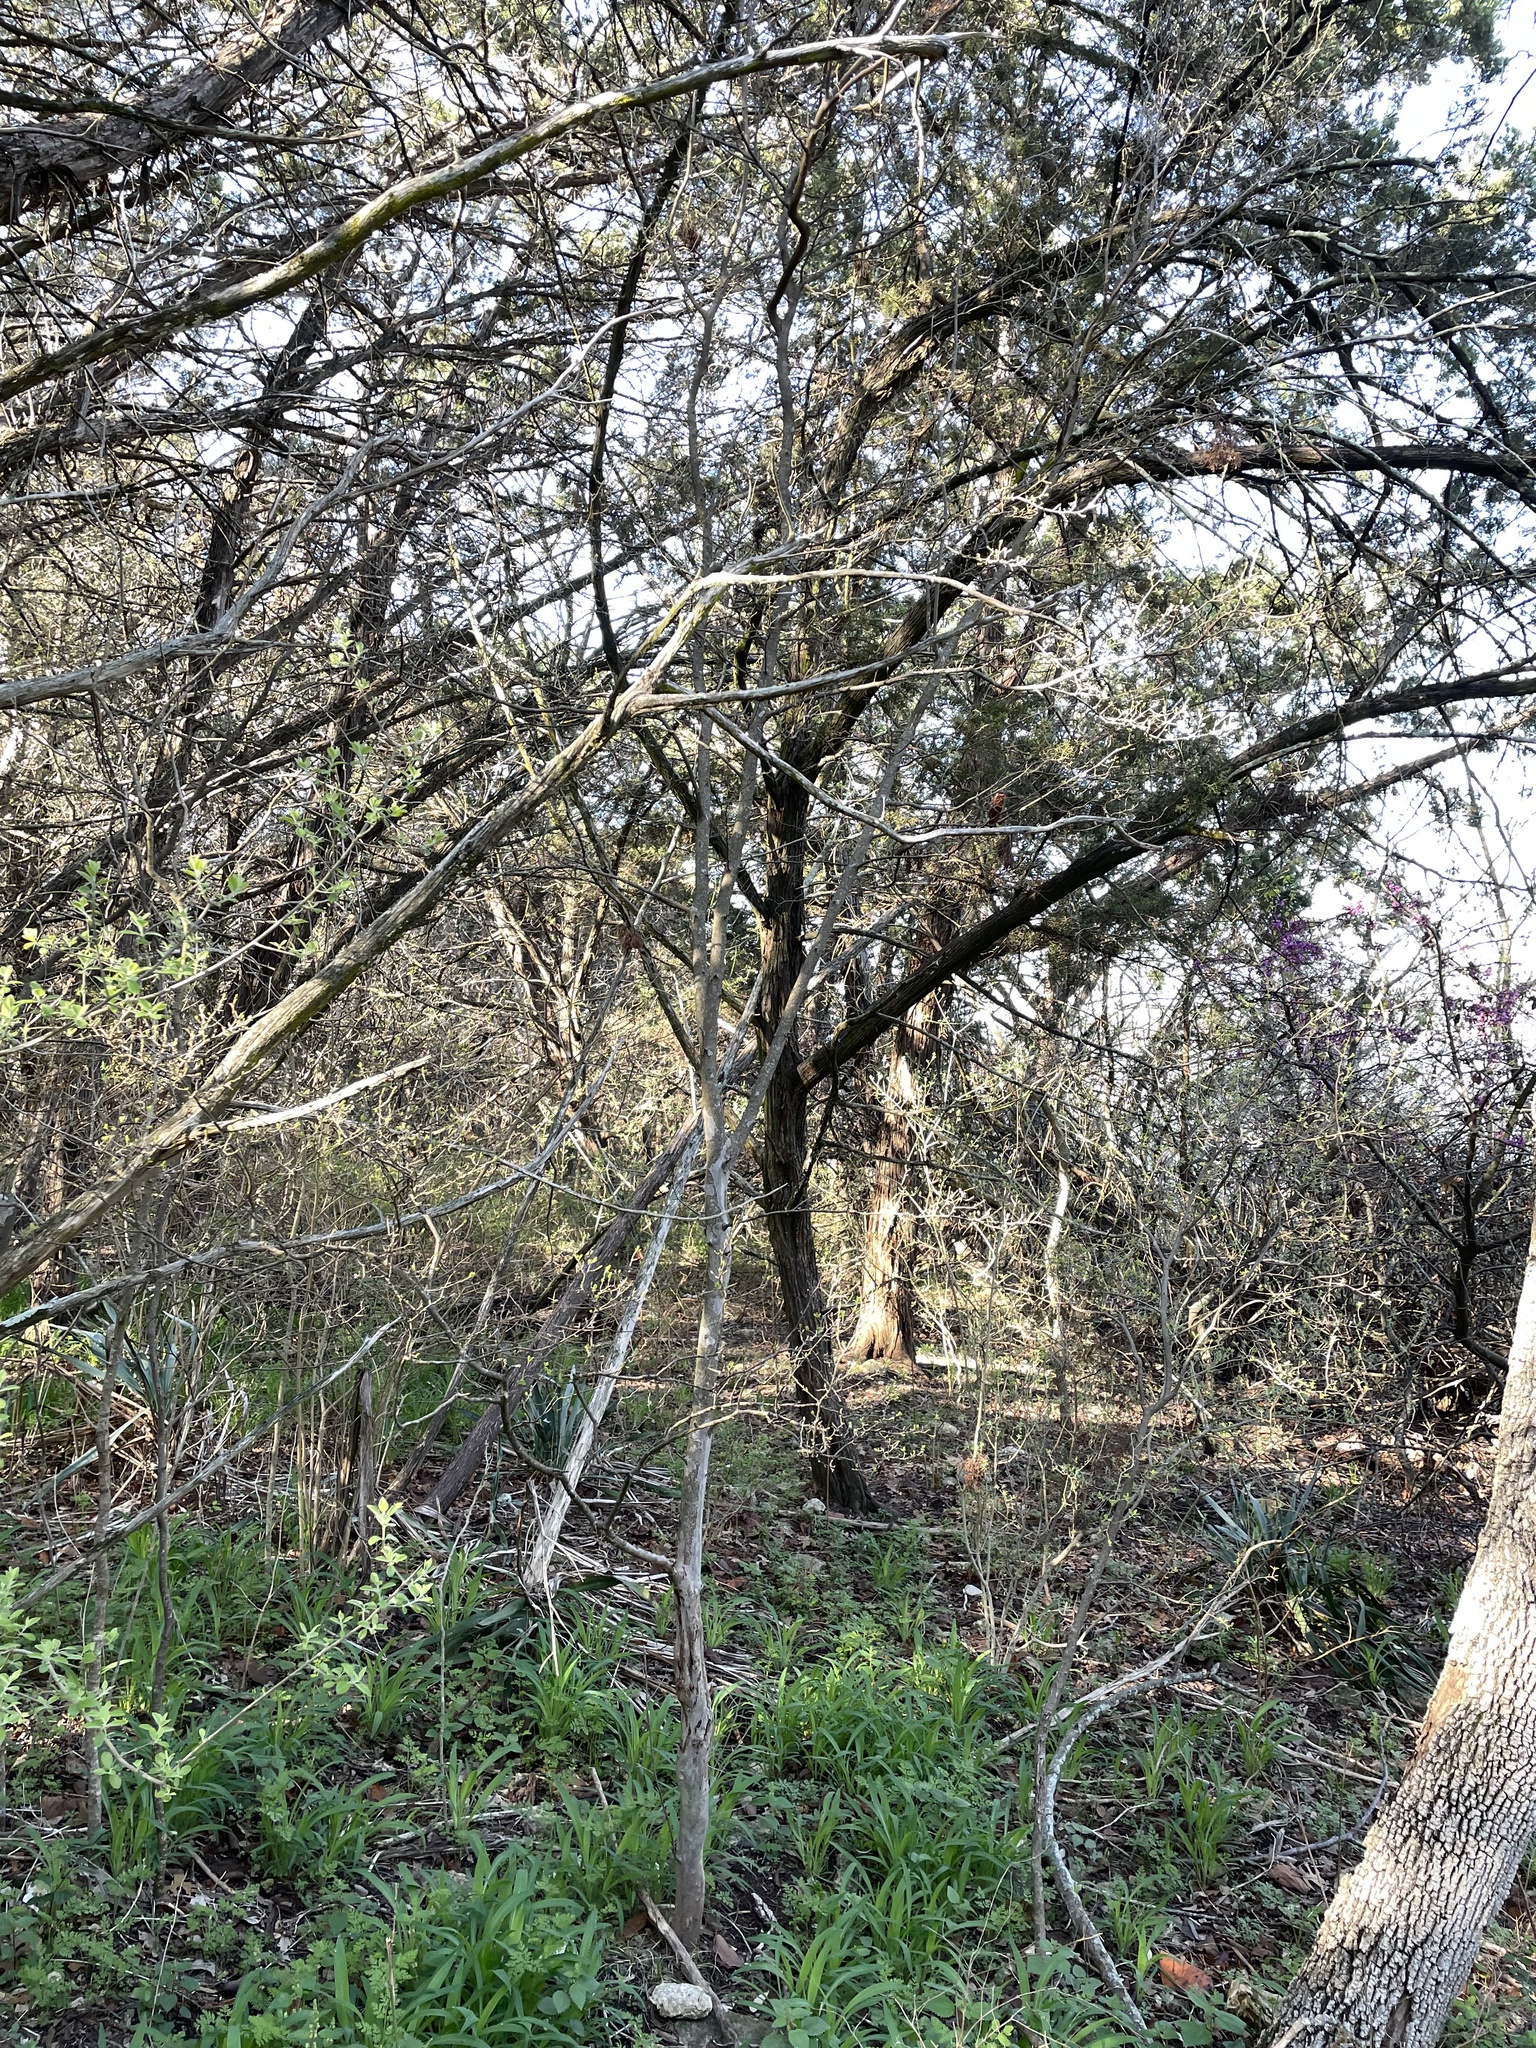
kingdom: Plantae
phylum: Tracheophyta
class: Magnoliopsida
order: Ericales
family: Ebenaceae
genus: Diospyros
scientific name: Diospyros texana
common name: Texas persimmon
